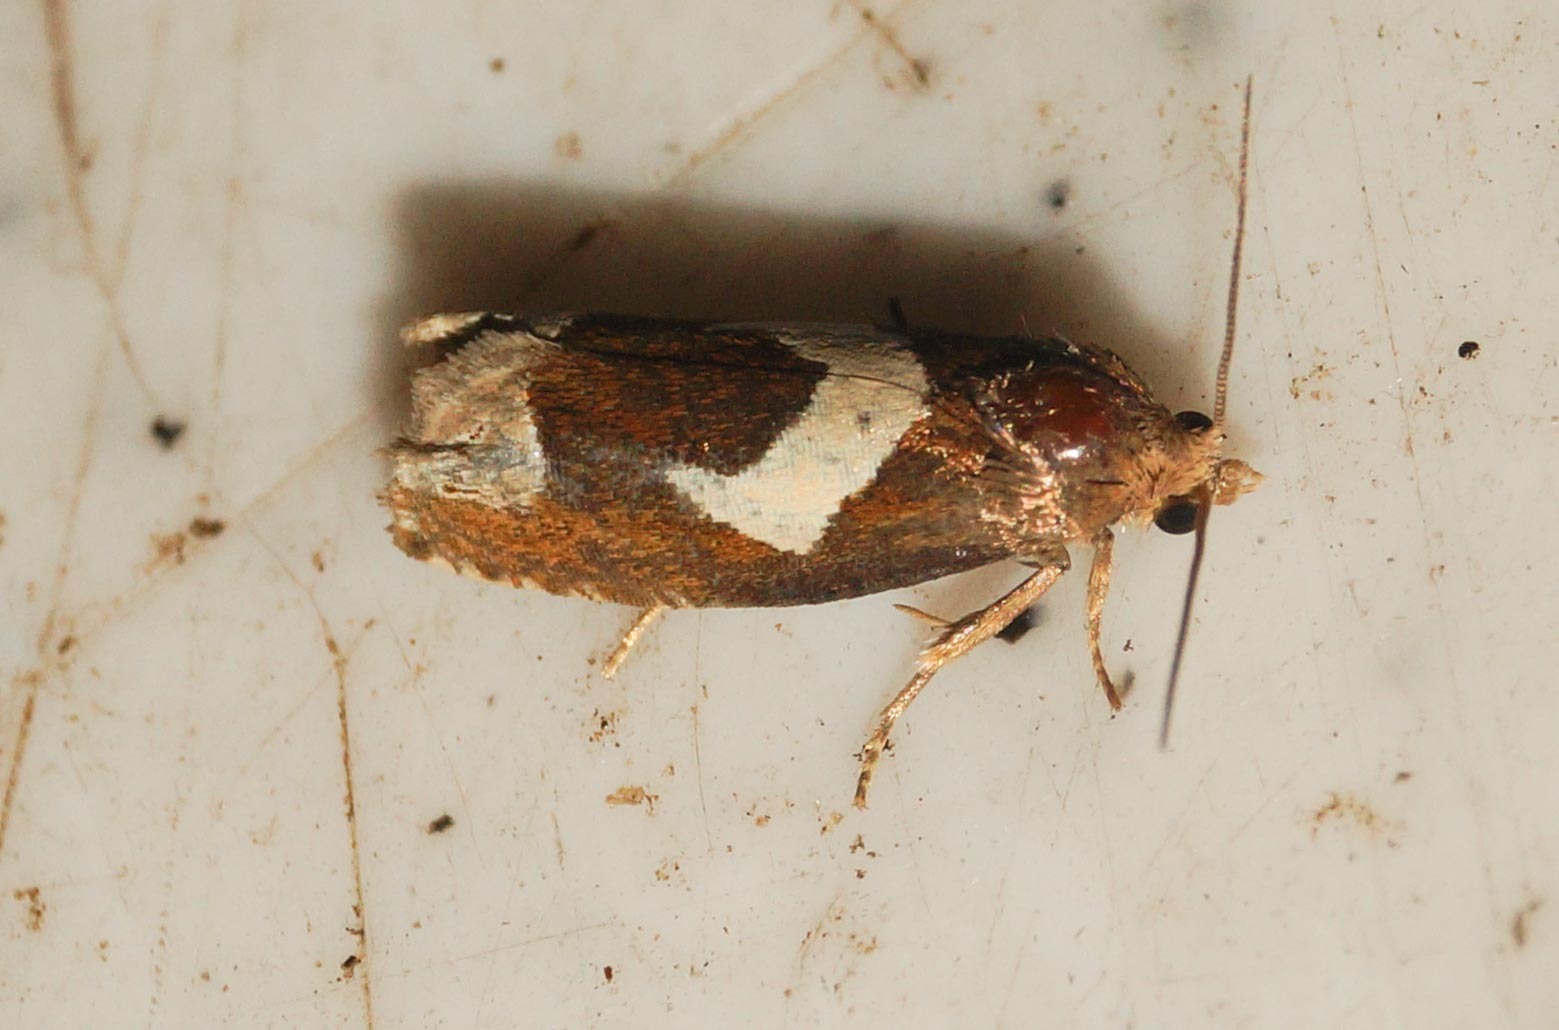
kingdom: Animalia
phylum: Arthropoda
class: Insecta
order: Lepidoptera
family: Tortricidae
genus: Epiblema
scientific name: Epiblema foenella
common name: White-foot bell
